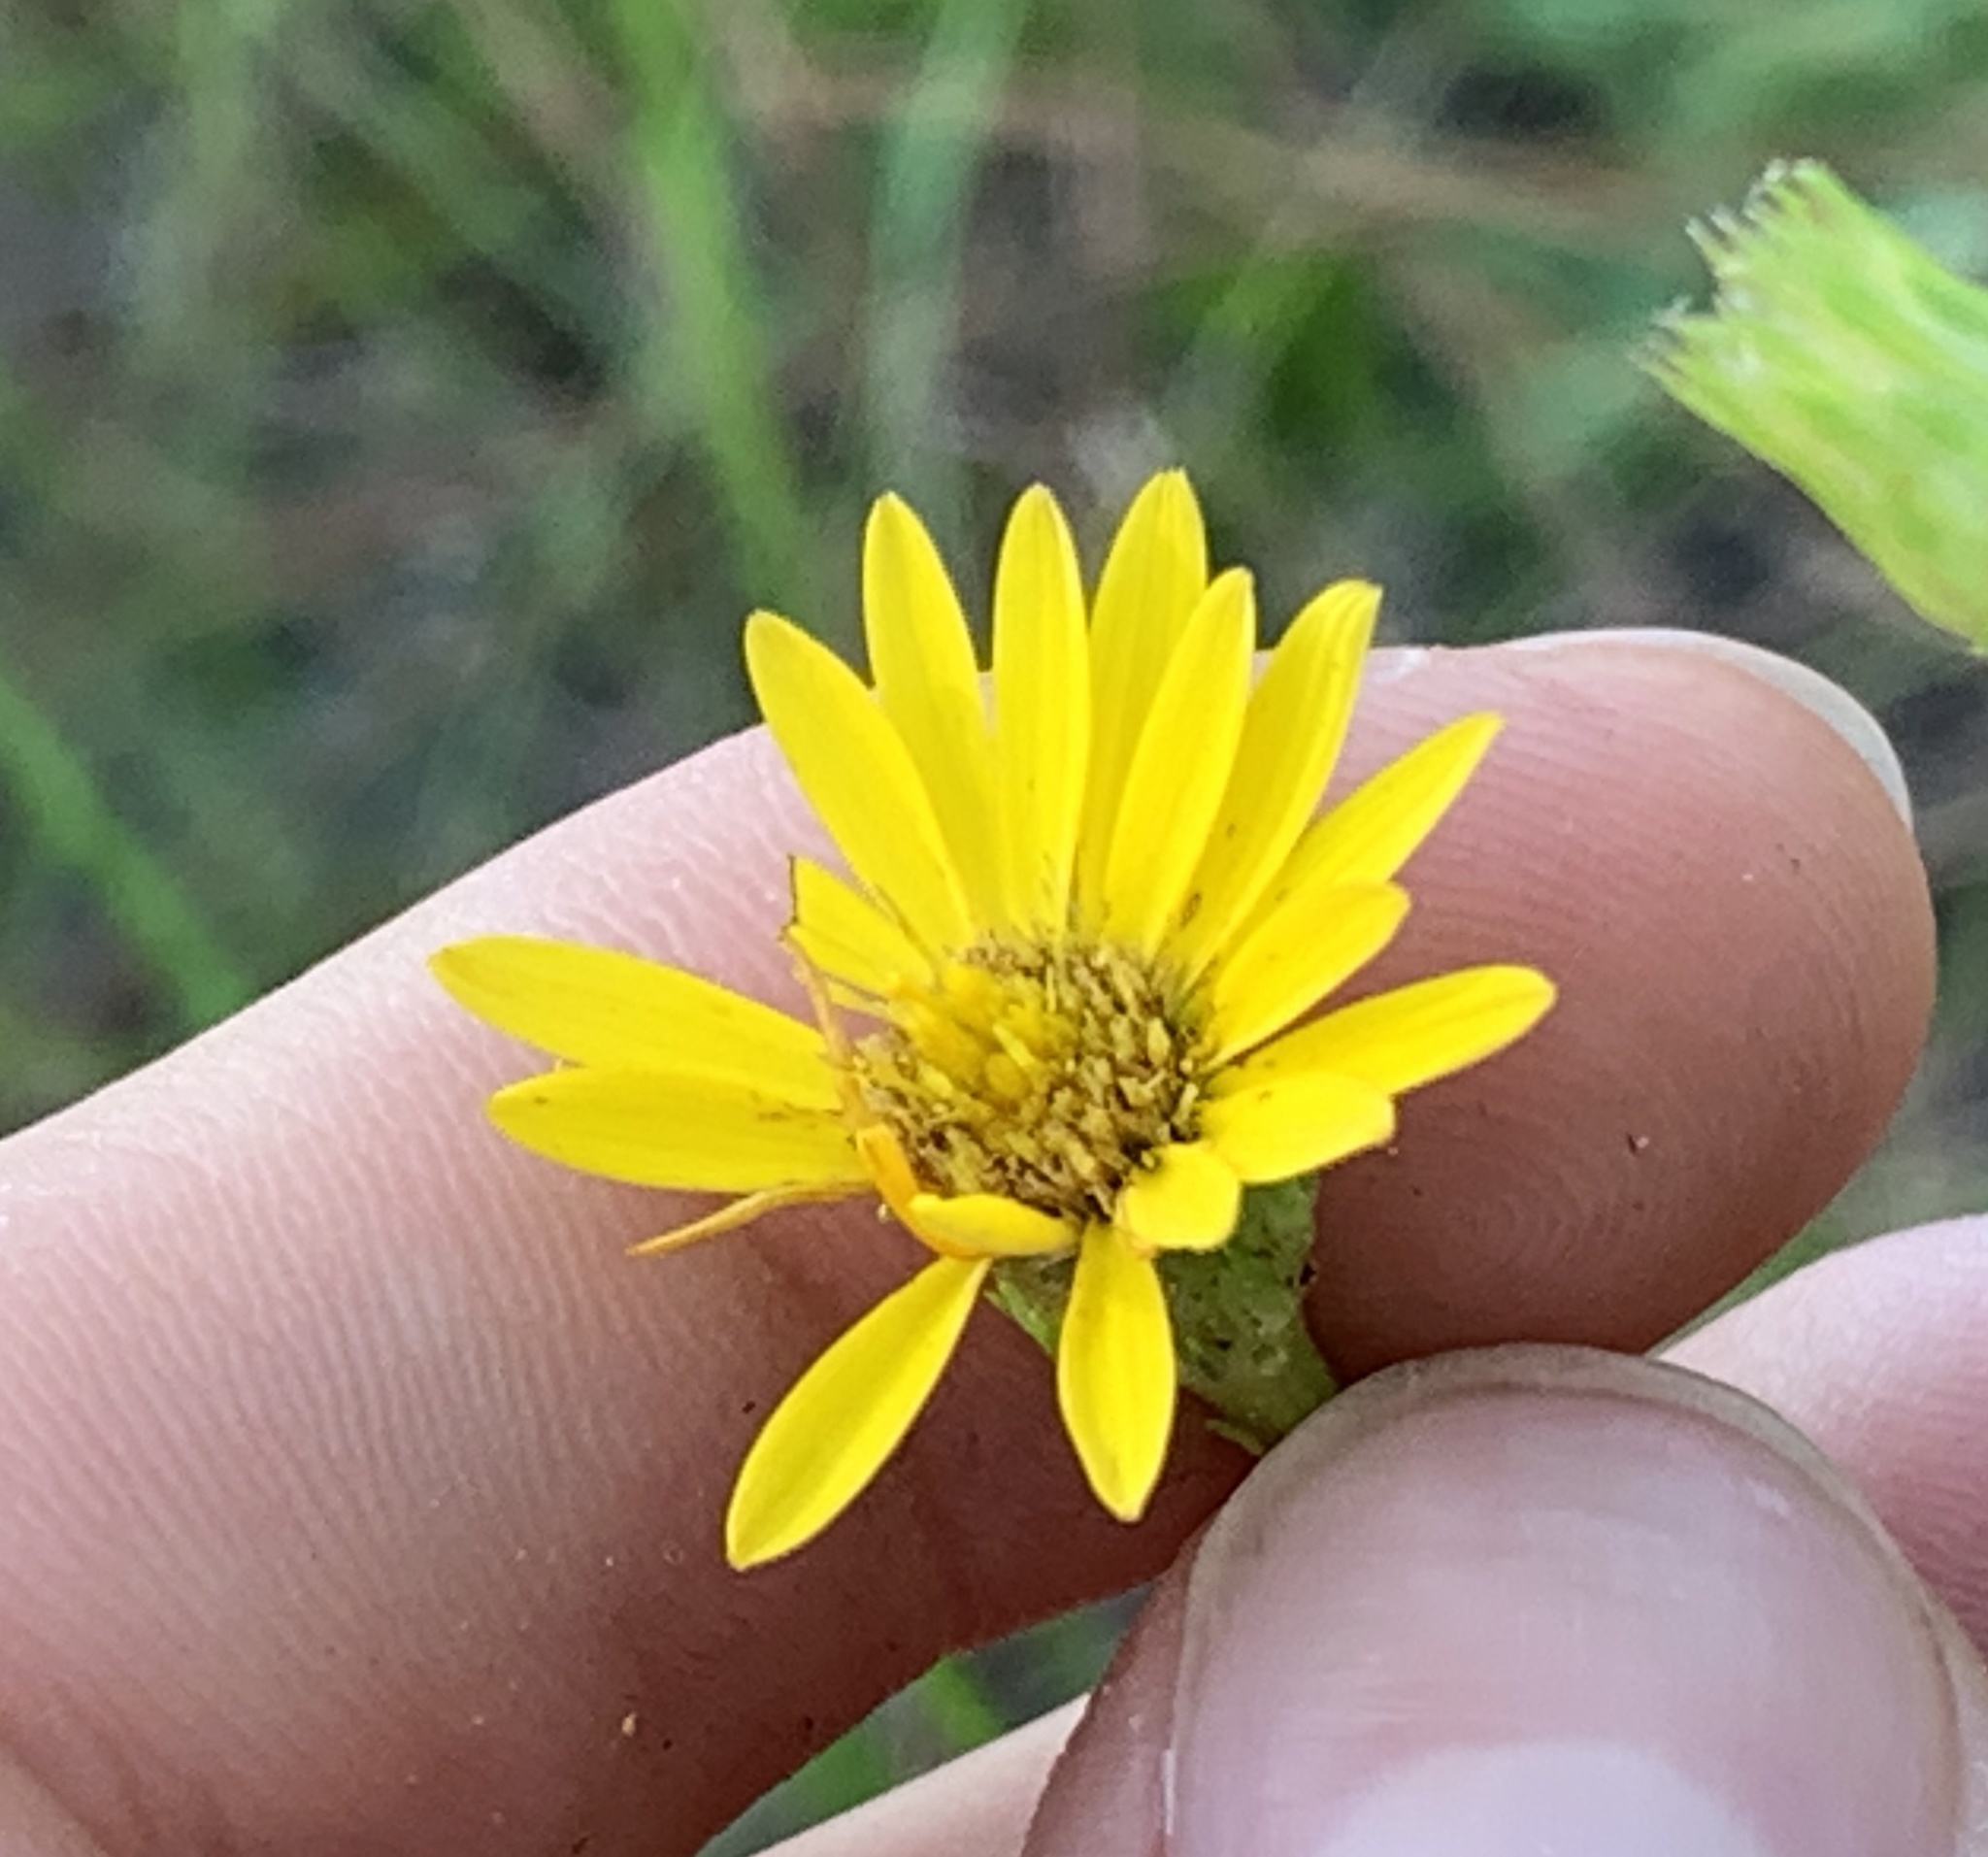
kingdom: Plantae
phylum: Tracheophyta
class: Magnoliopsida
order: Asterales
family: Asteraceae
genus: Chrysopsis
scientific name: Chrysopsis linearifolia
